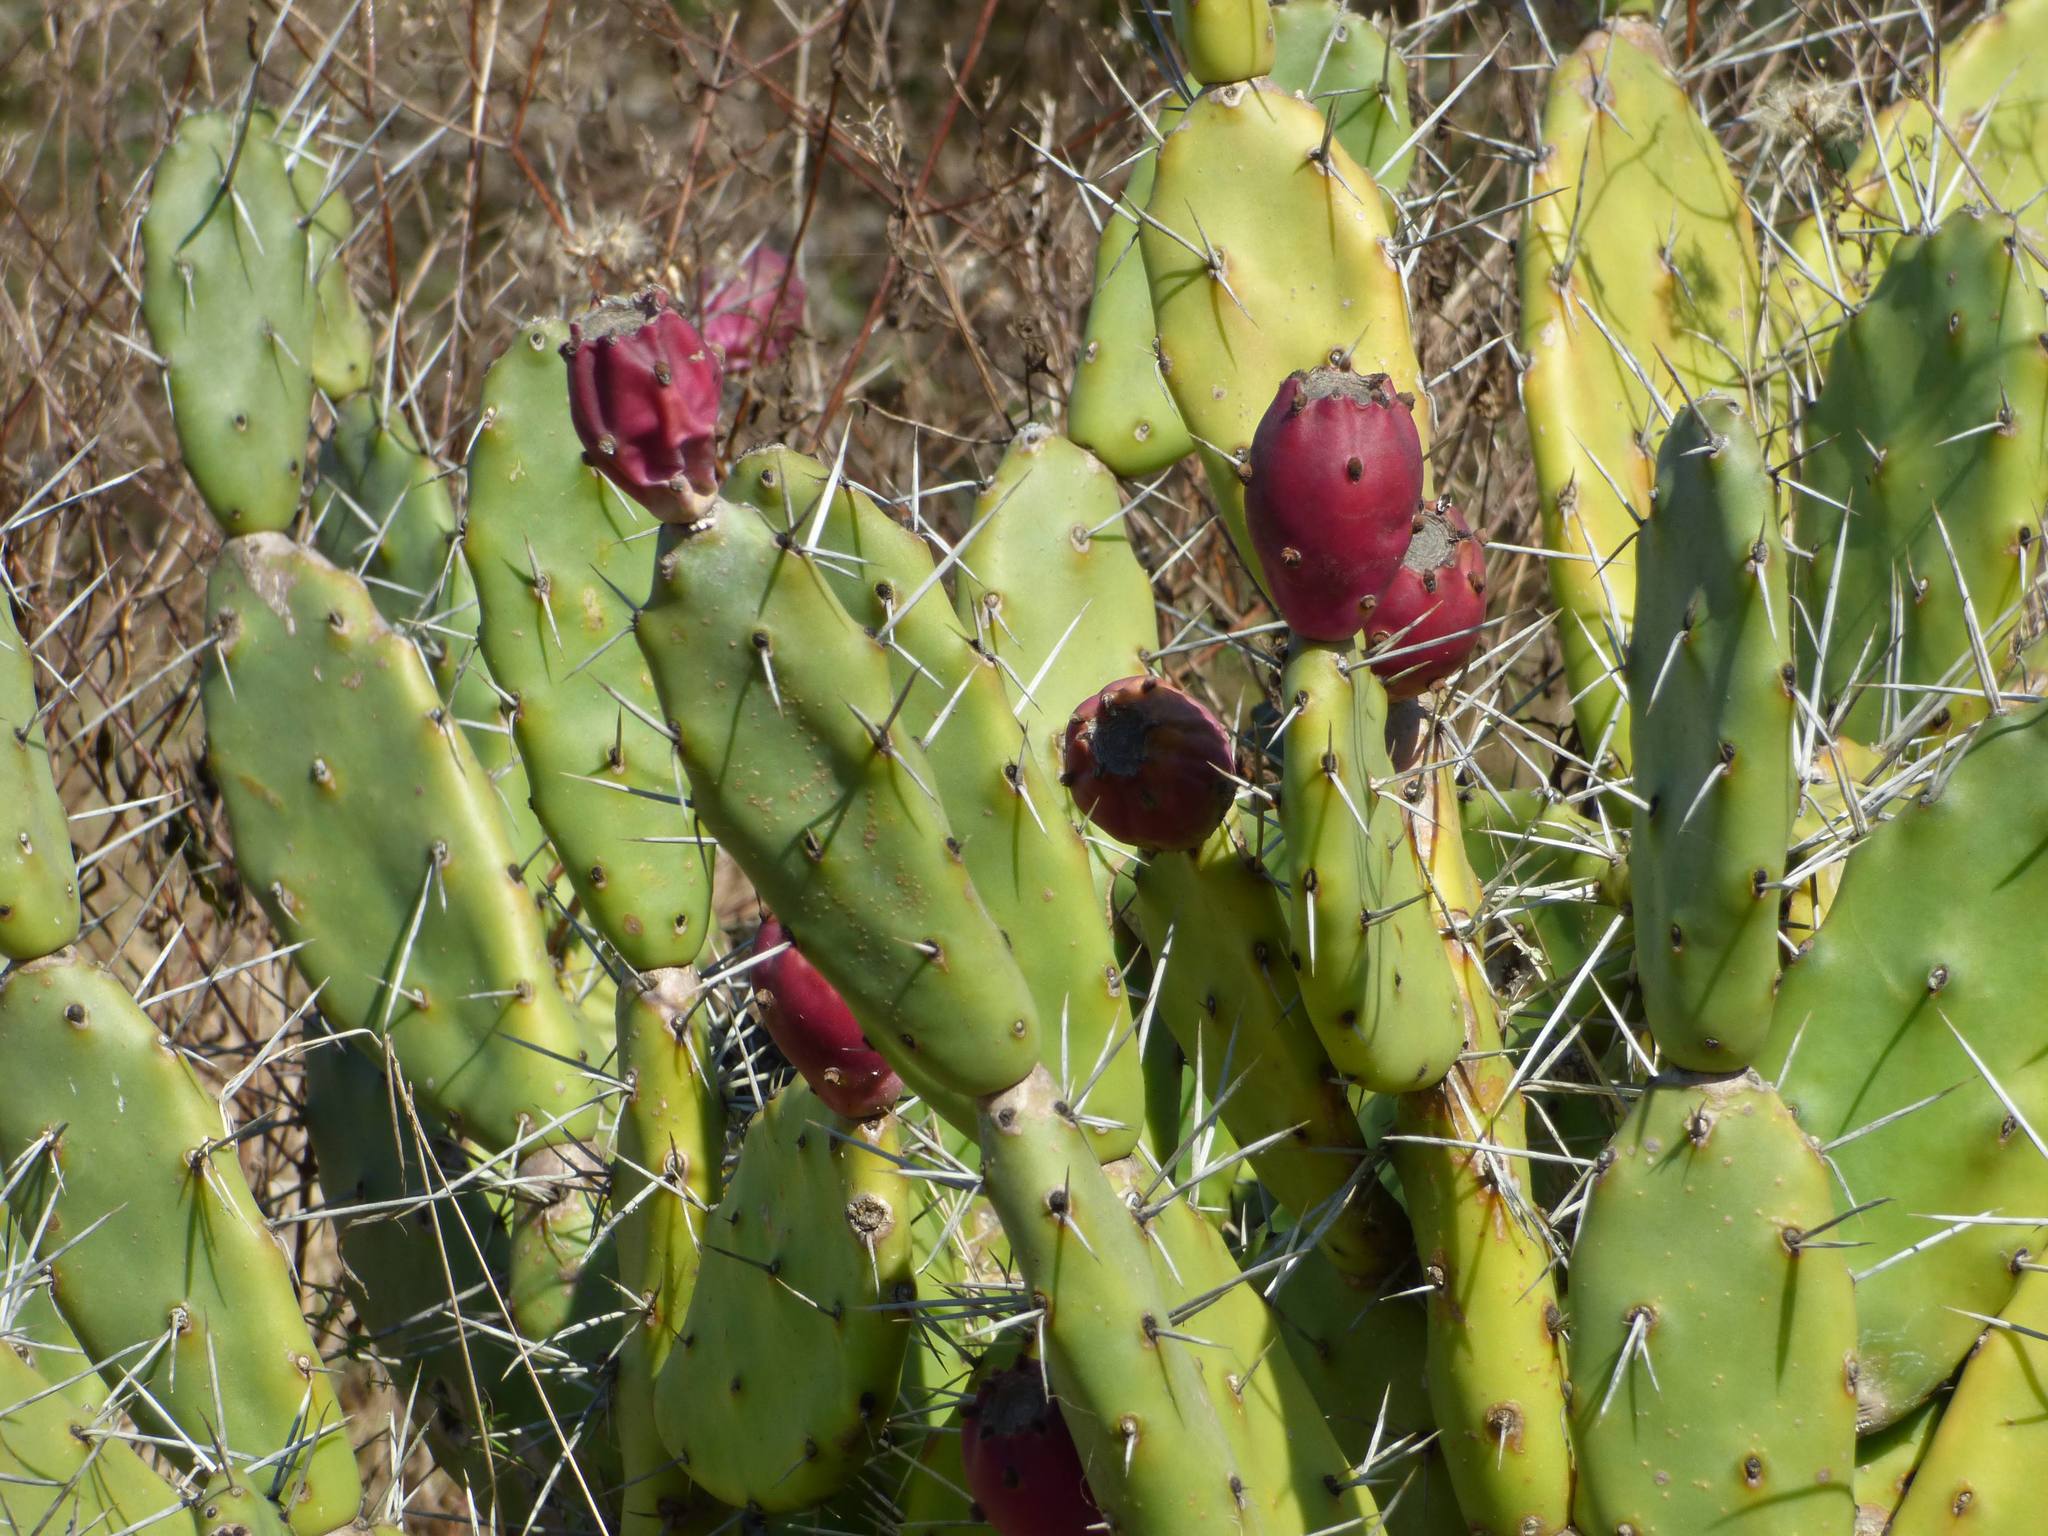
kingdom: Plantae
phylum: Tracheophyta
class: Magnoliopsida
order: Caryophyllales
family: Cactaceae
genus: Opuntia
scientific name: Opuntia elata
